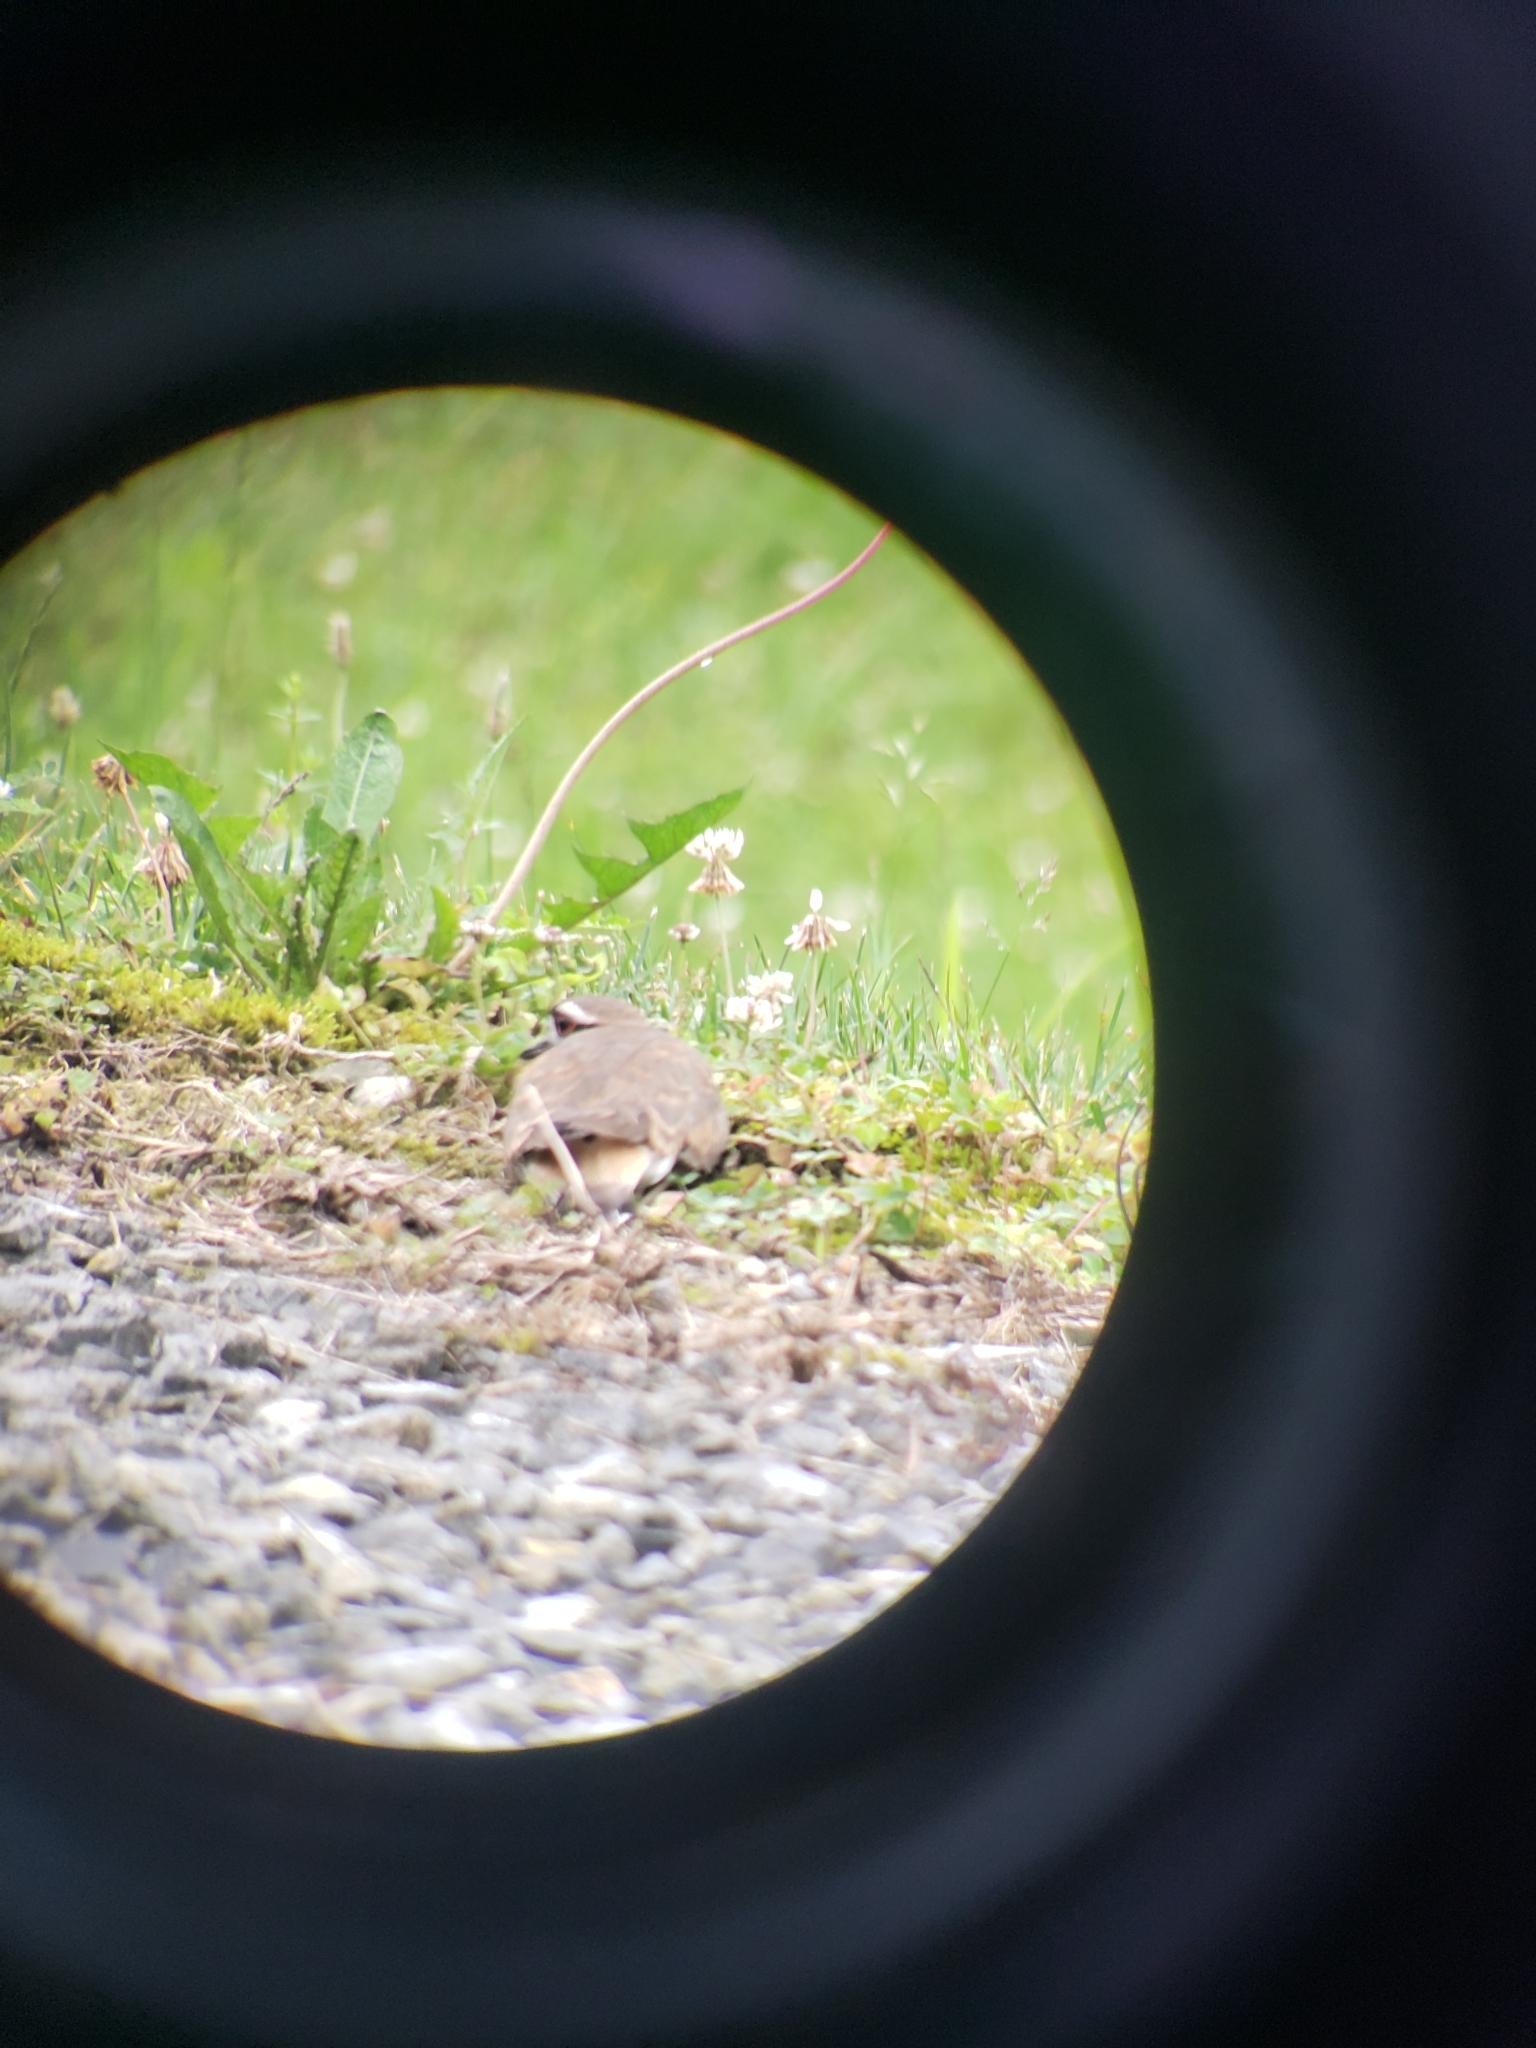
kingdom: Animalia
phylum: Chordata
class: Aves
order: Charadriiformes
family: Charadriidae
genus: Charadrius
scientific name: Charadrius vociferus
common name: Killdeer
